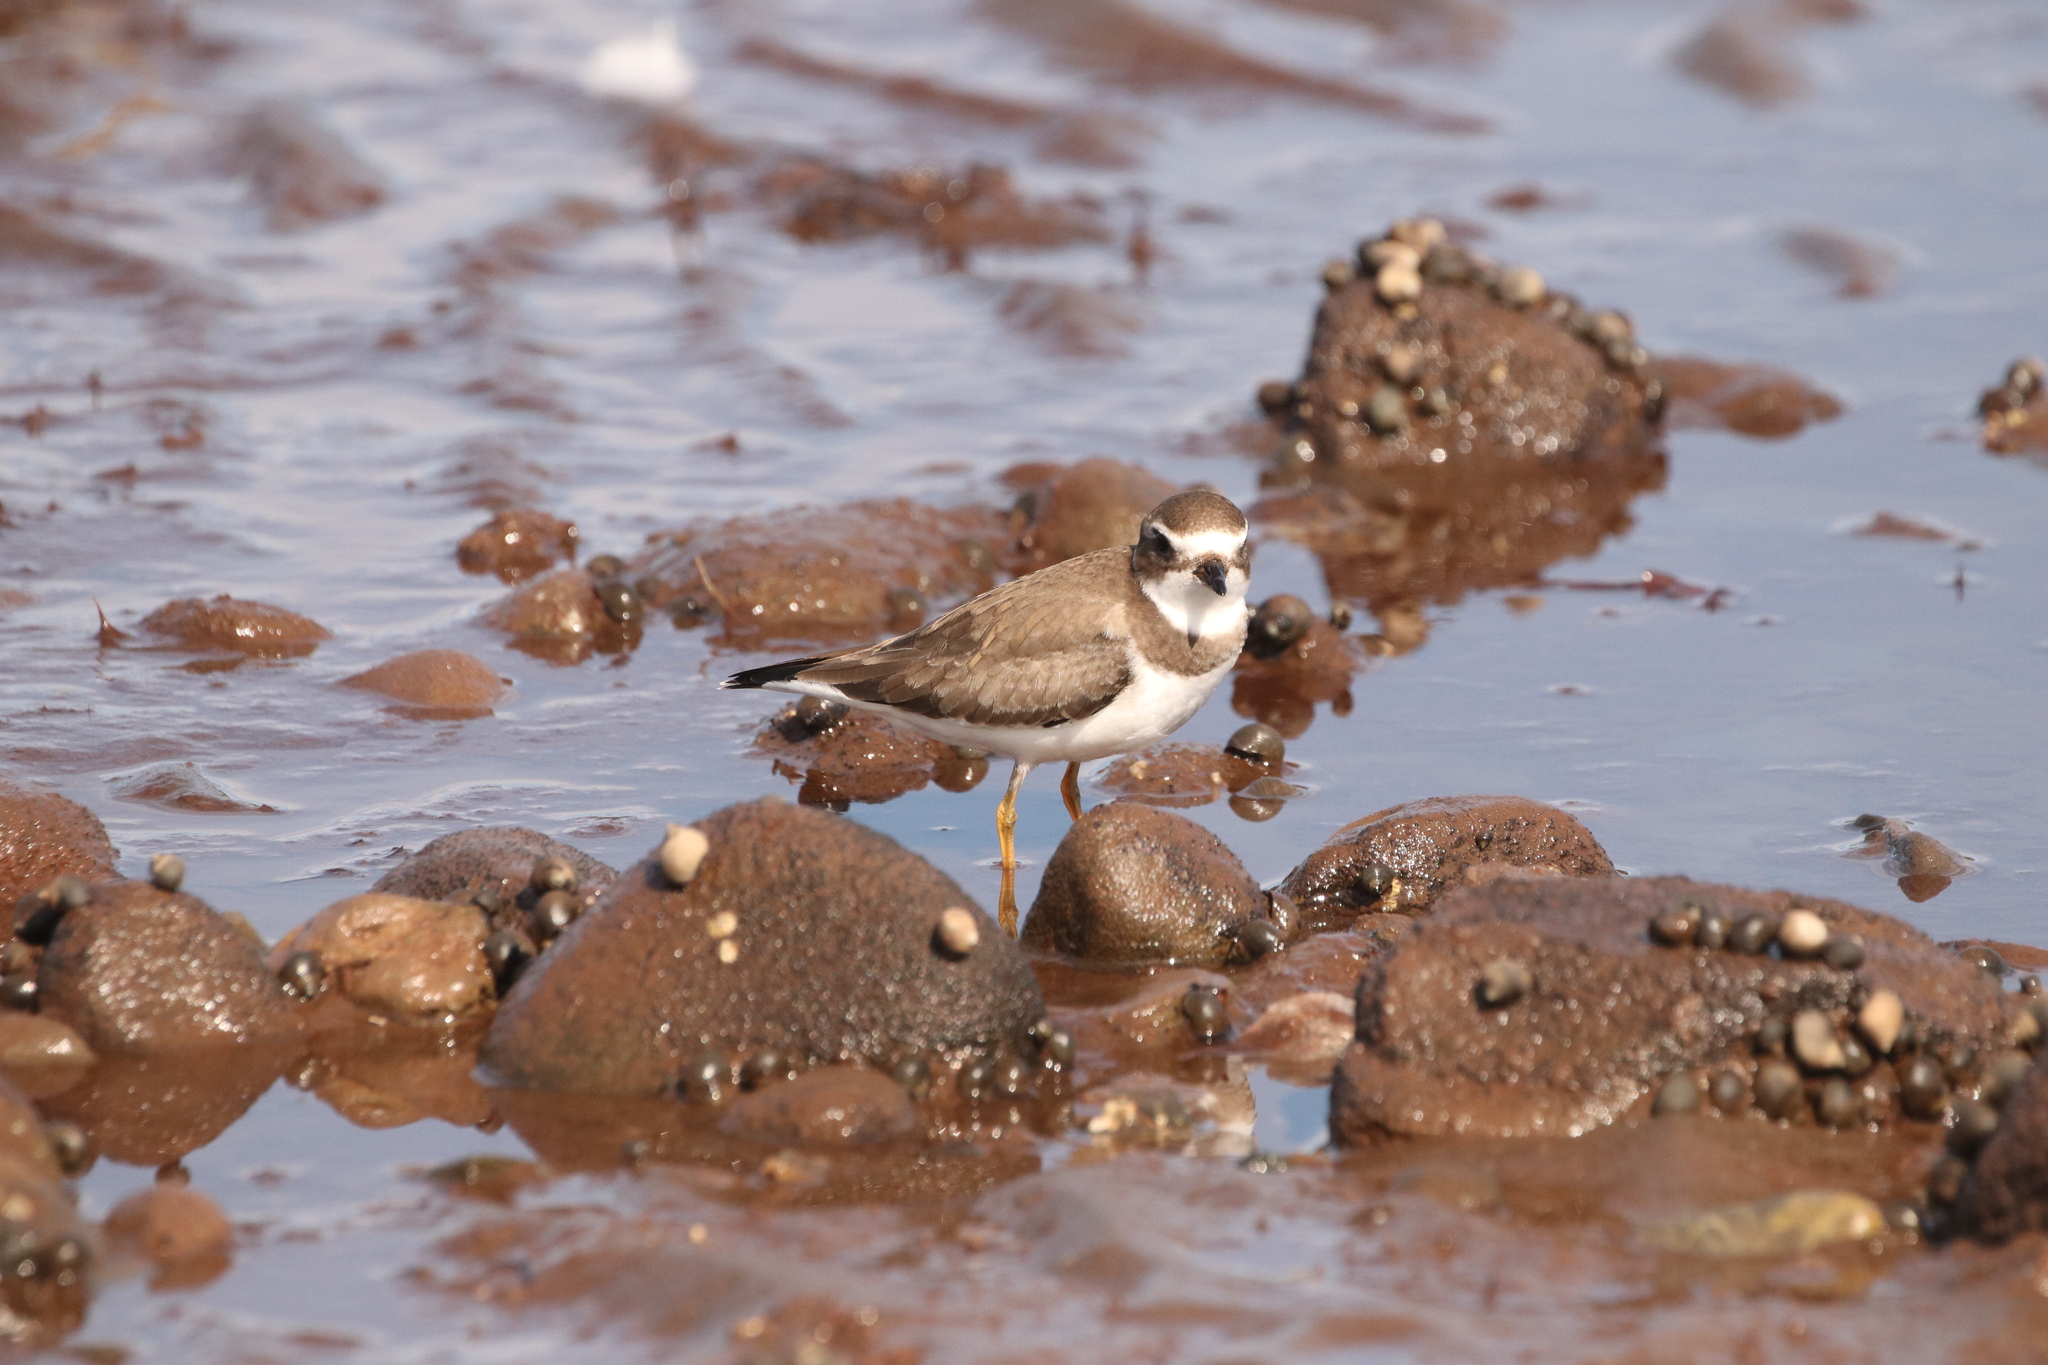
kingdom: Animalia
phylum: Chordata
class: Aves
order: Charadriiformes
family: Charadriidae
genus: Charadrius
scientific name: Charadrius semipalmatus
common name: Semipalmated plover
